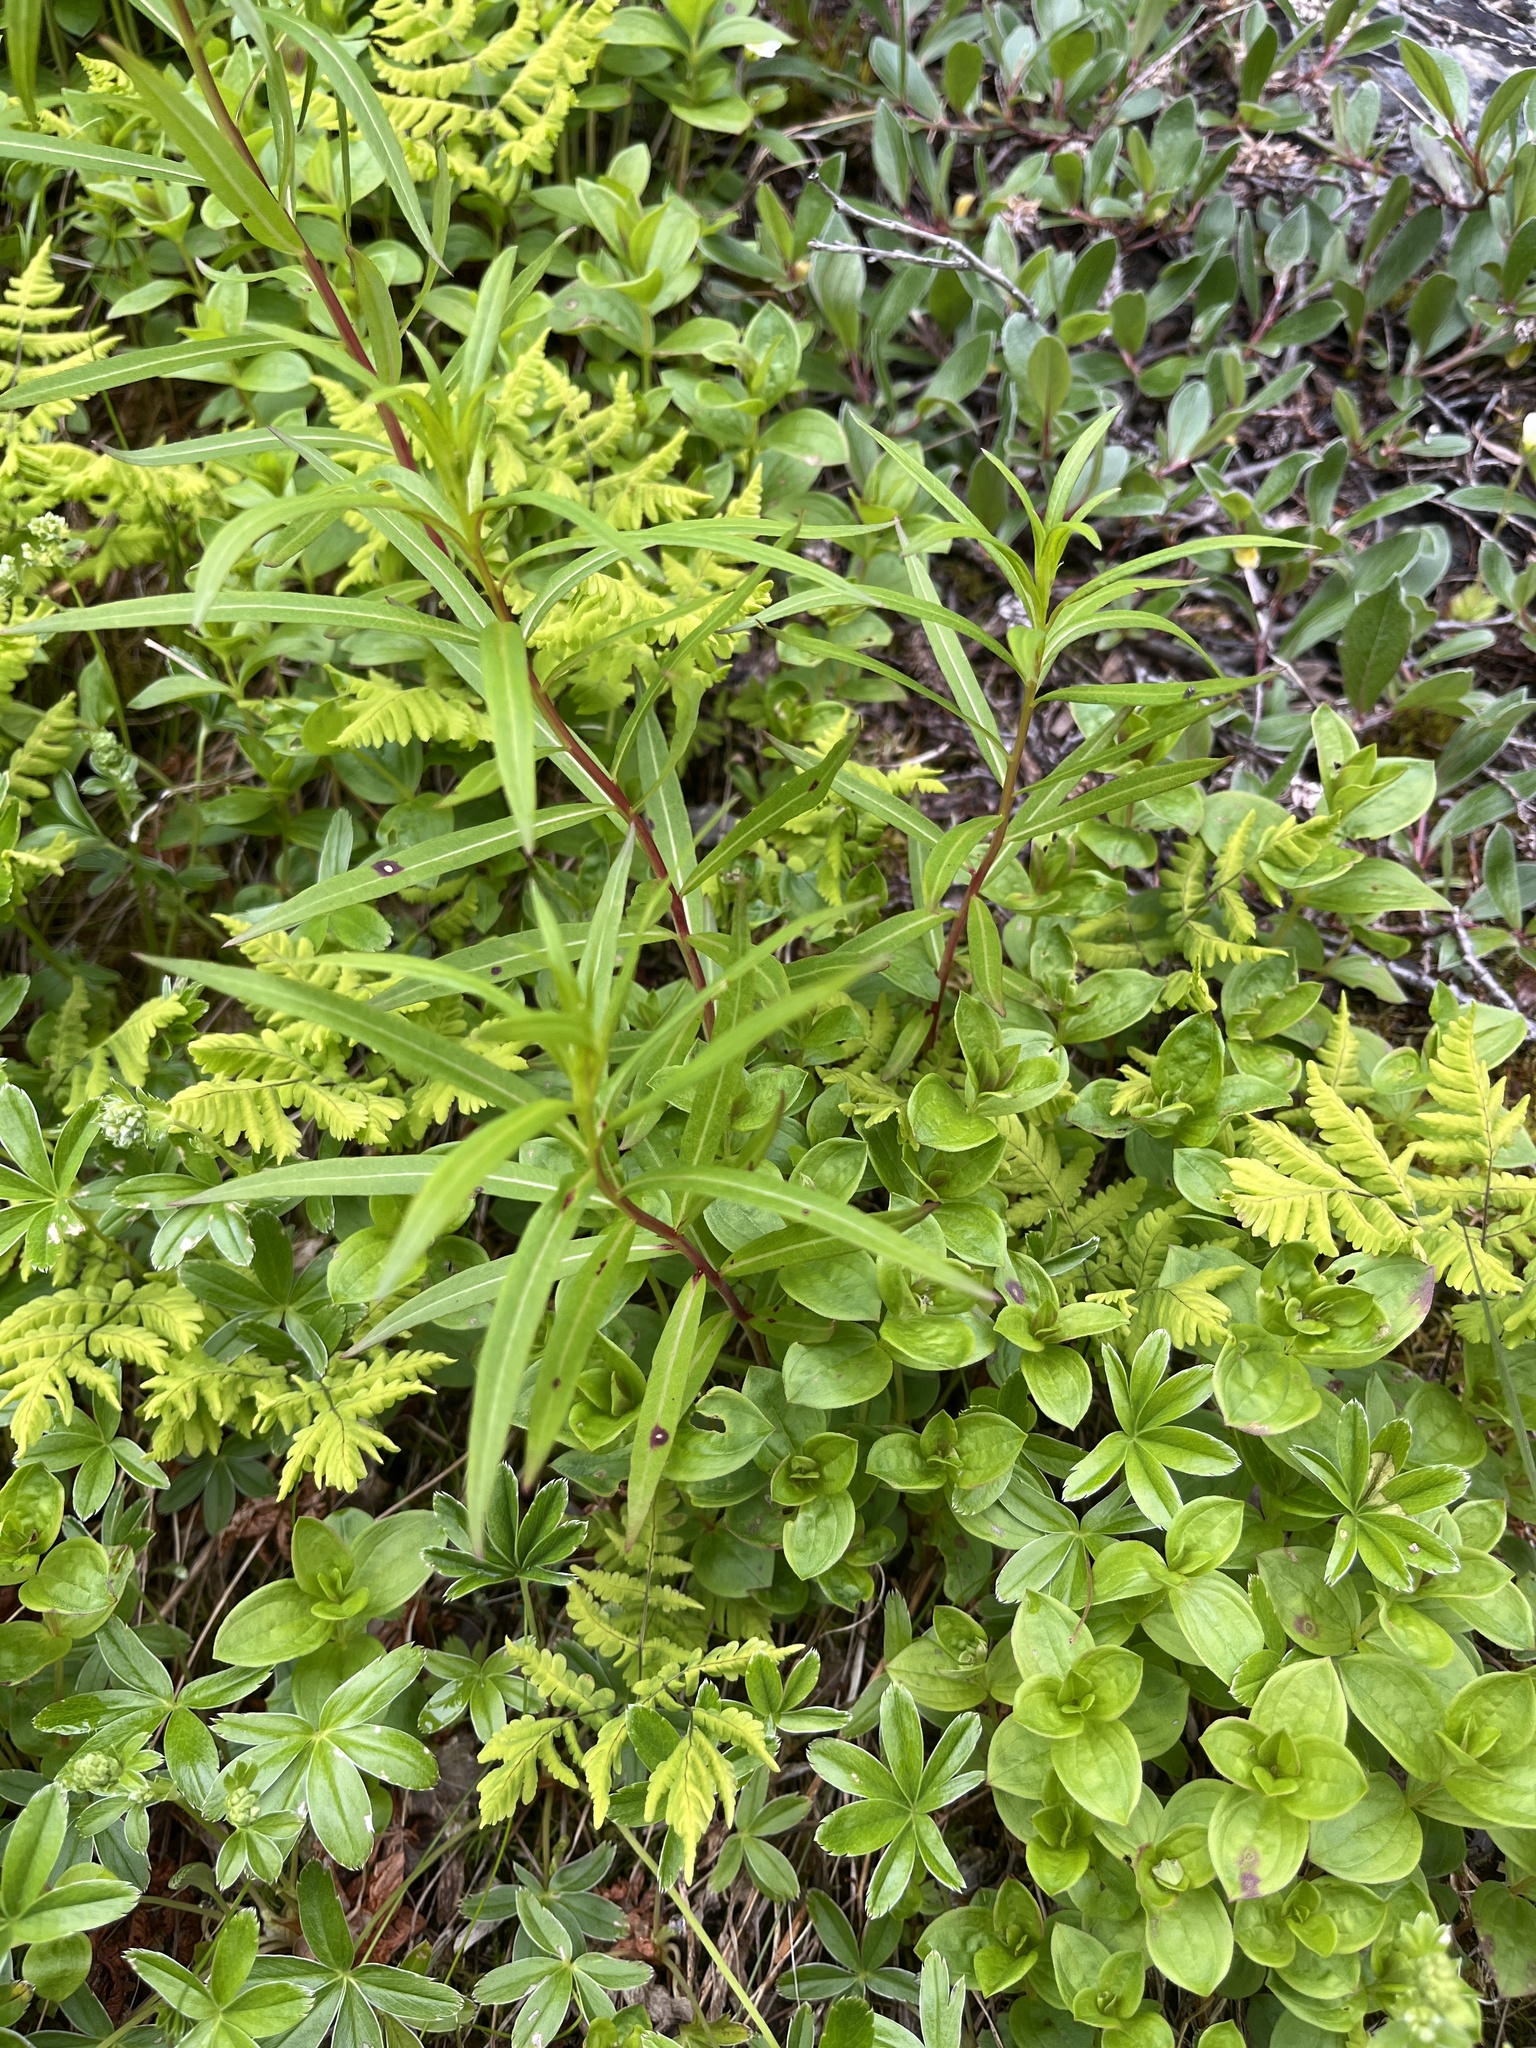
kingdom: Plantae
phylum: Tracheophyta
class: Magnoliopsida
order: Myrtales
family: Onagraceae
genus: Chamaenerion
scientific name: Chamaenerion angustifolium
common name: Fireweed
